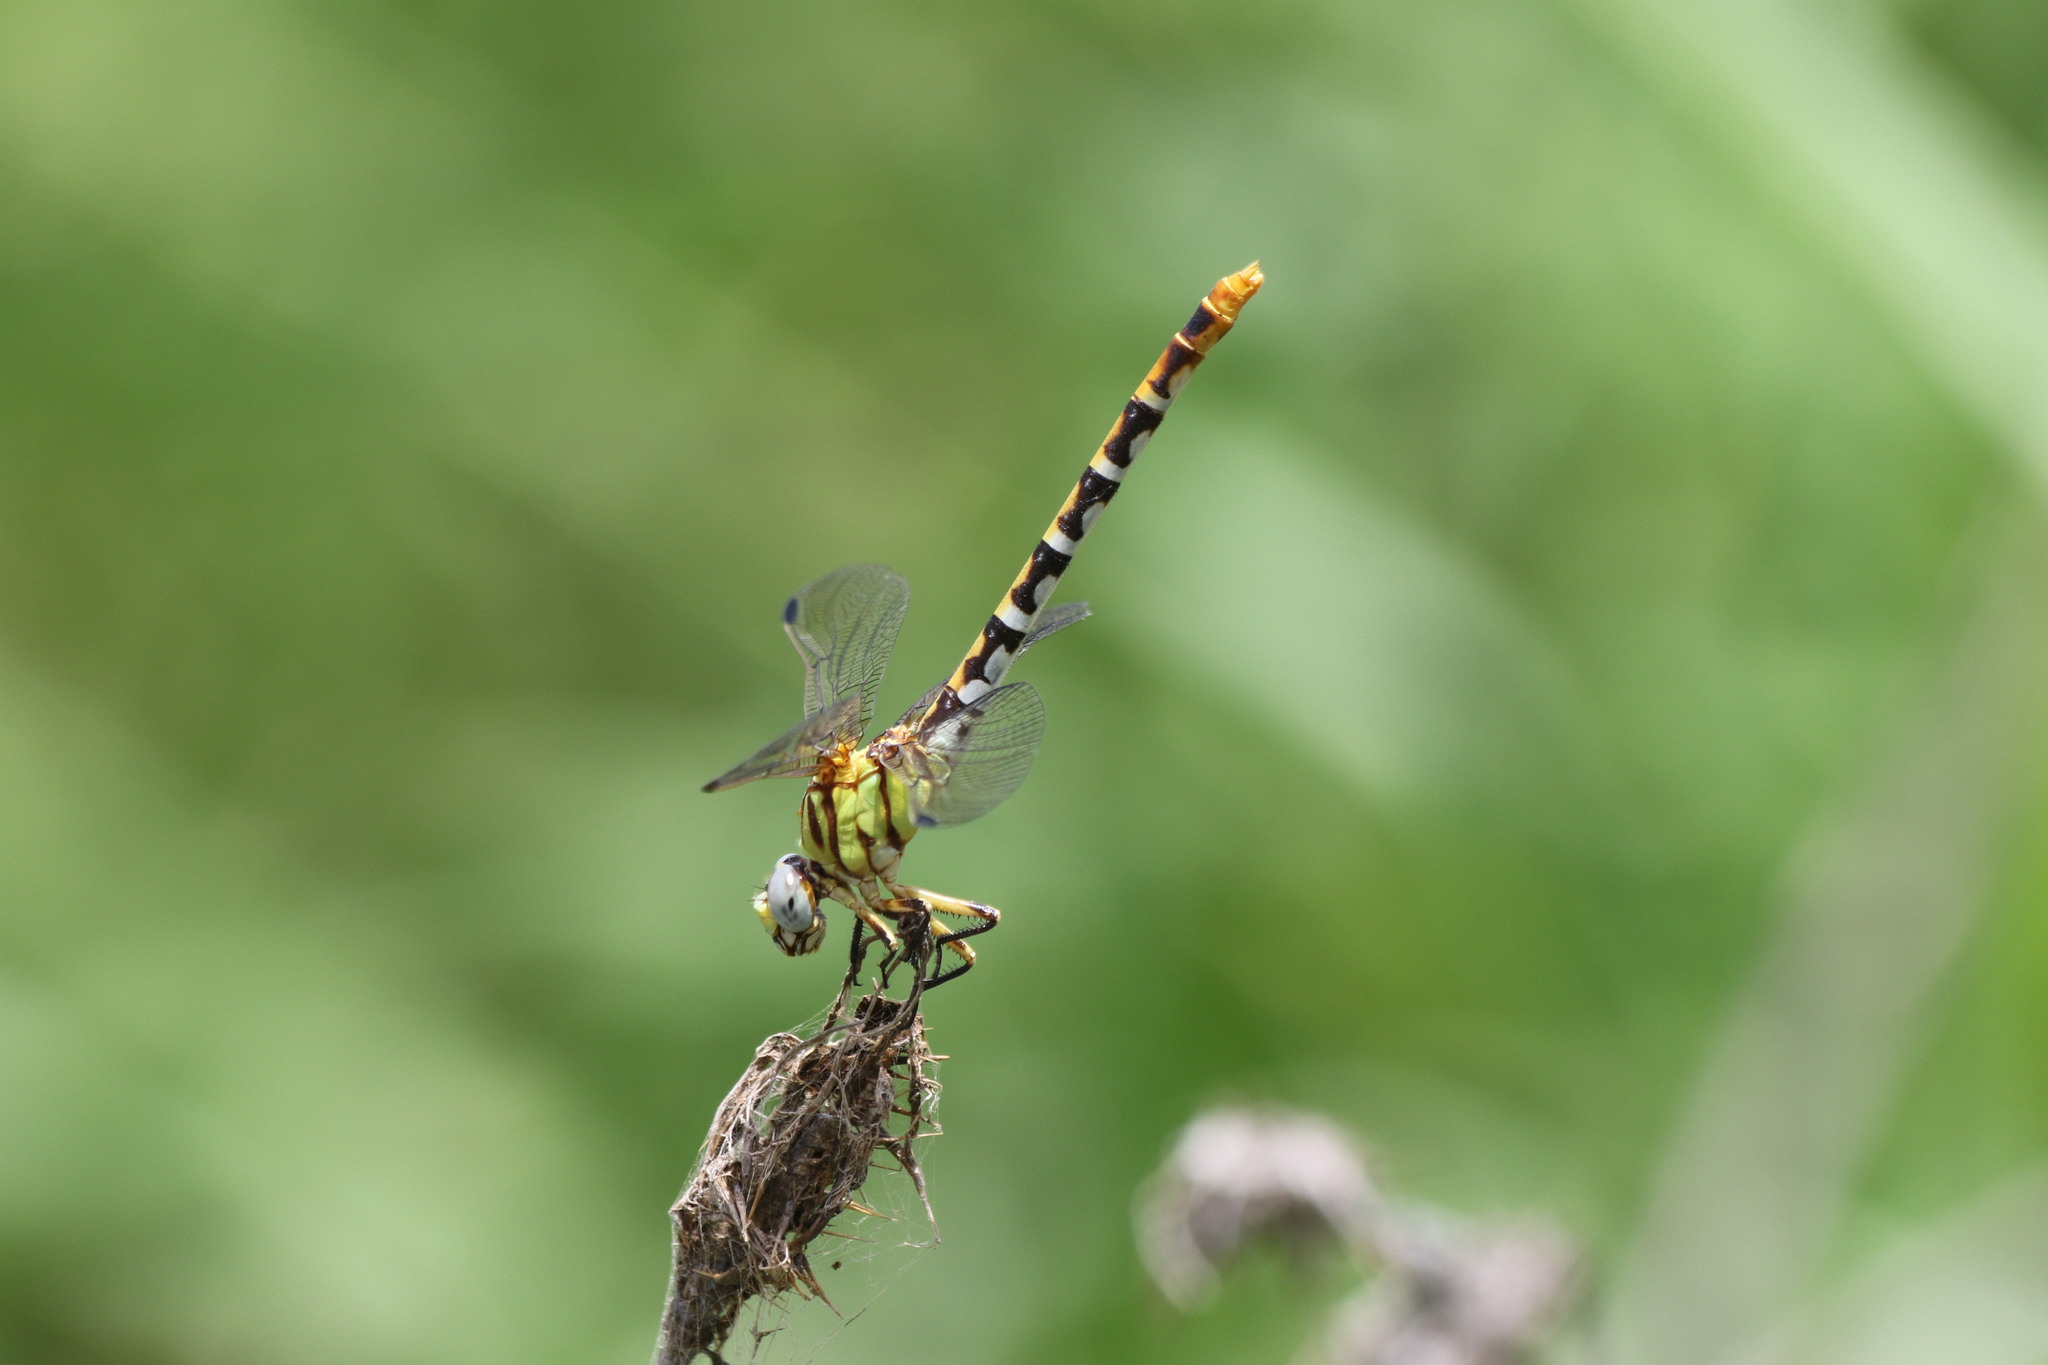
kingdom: Animalia
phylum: Arthropoda
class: Insecta
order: Odonata
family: Gomphidae
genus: Erpetogomphus
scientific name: Erpetogomphus designatus
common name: Eastern ringtail
